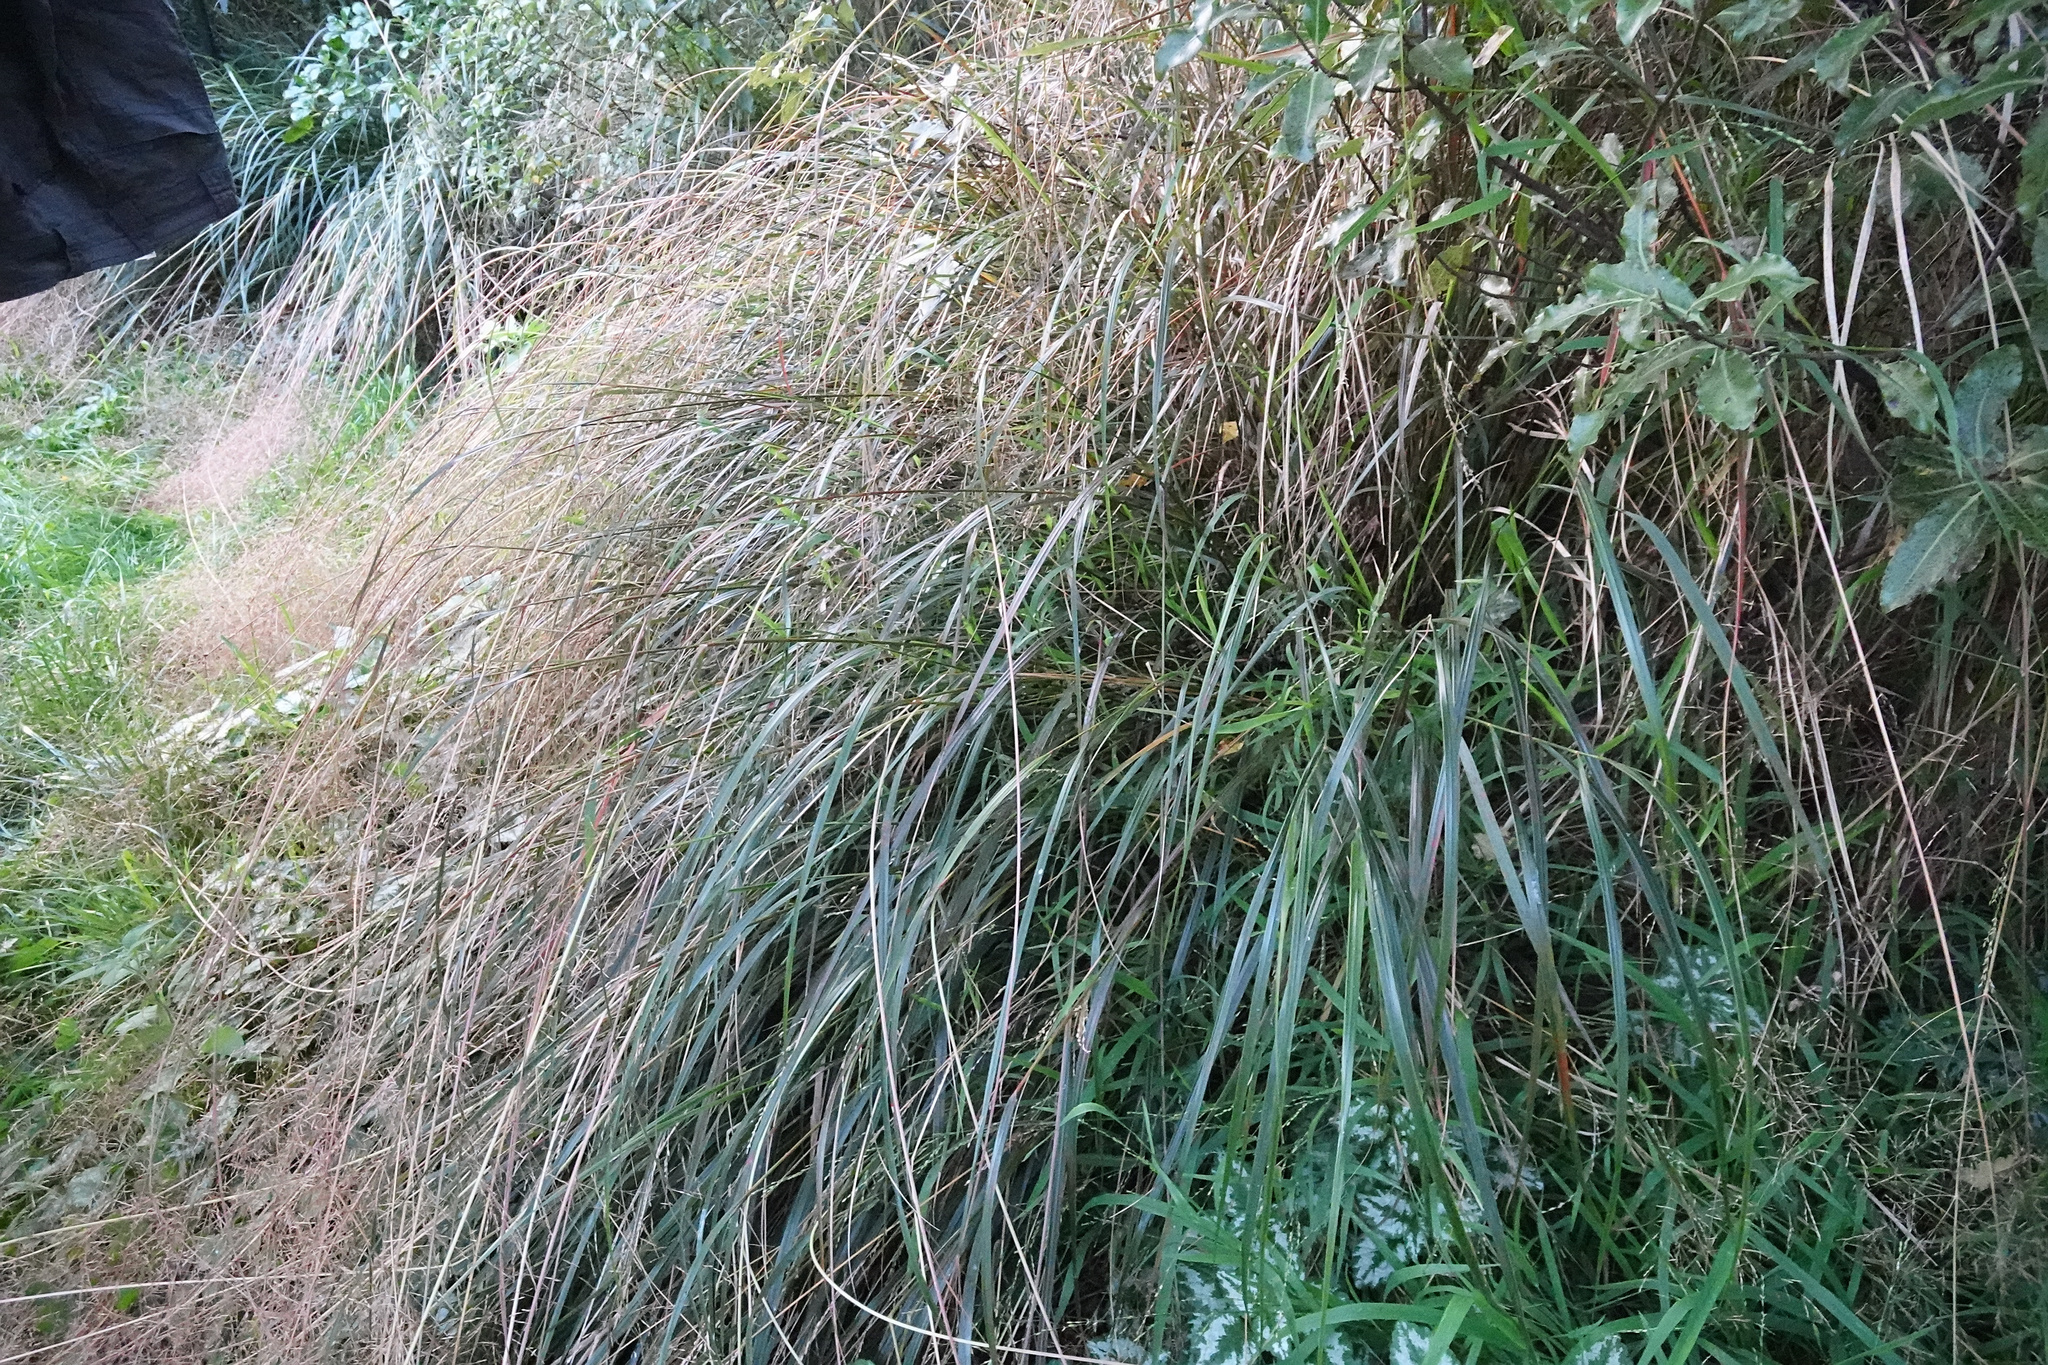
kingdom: Plantae
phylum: Tracheophyta
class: Liliopsida
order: Poales
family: Poaceae
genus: Anemanthele
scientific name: Anemanthele lessoniana
